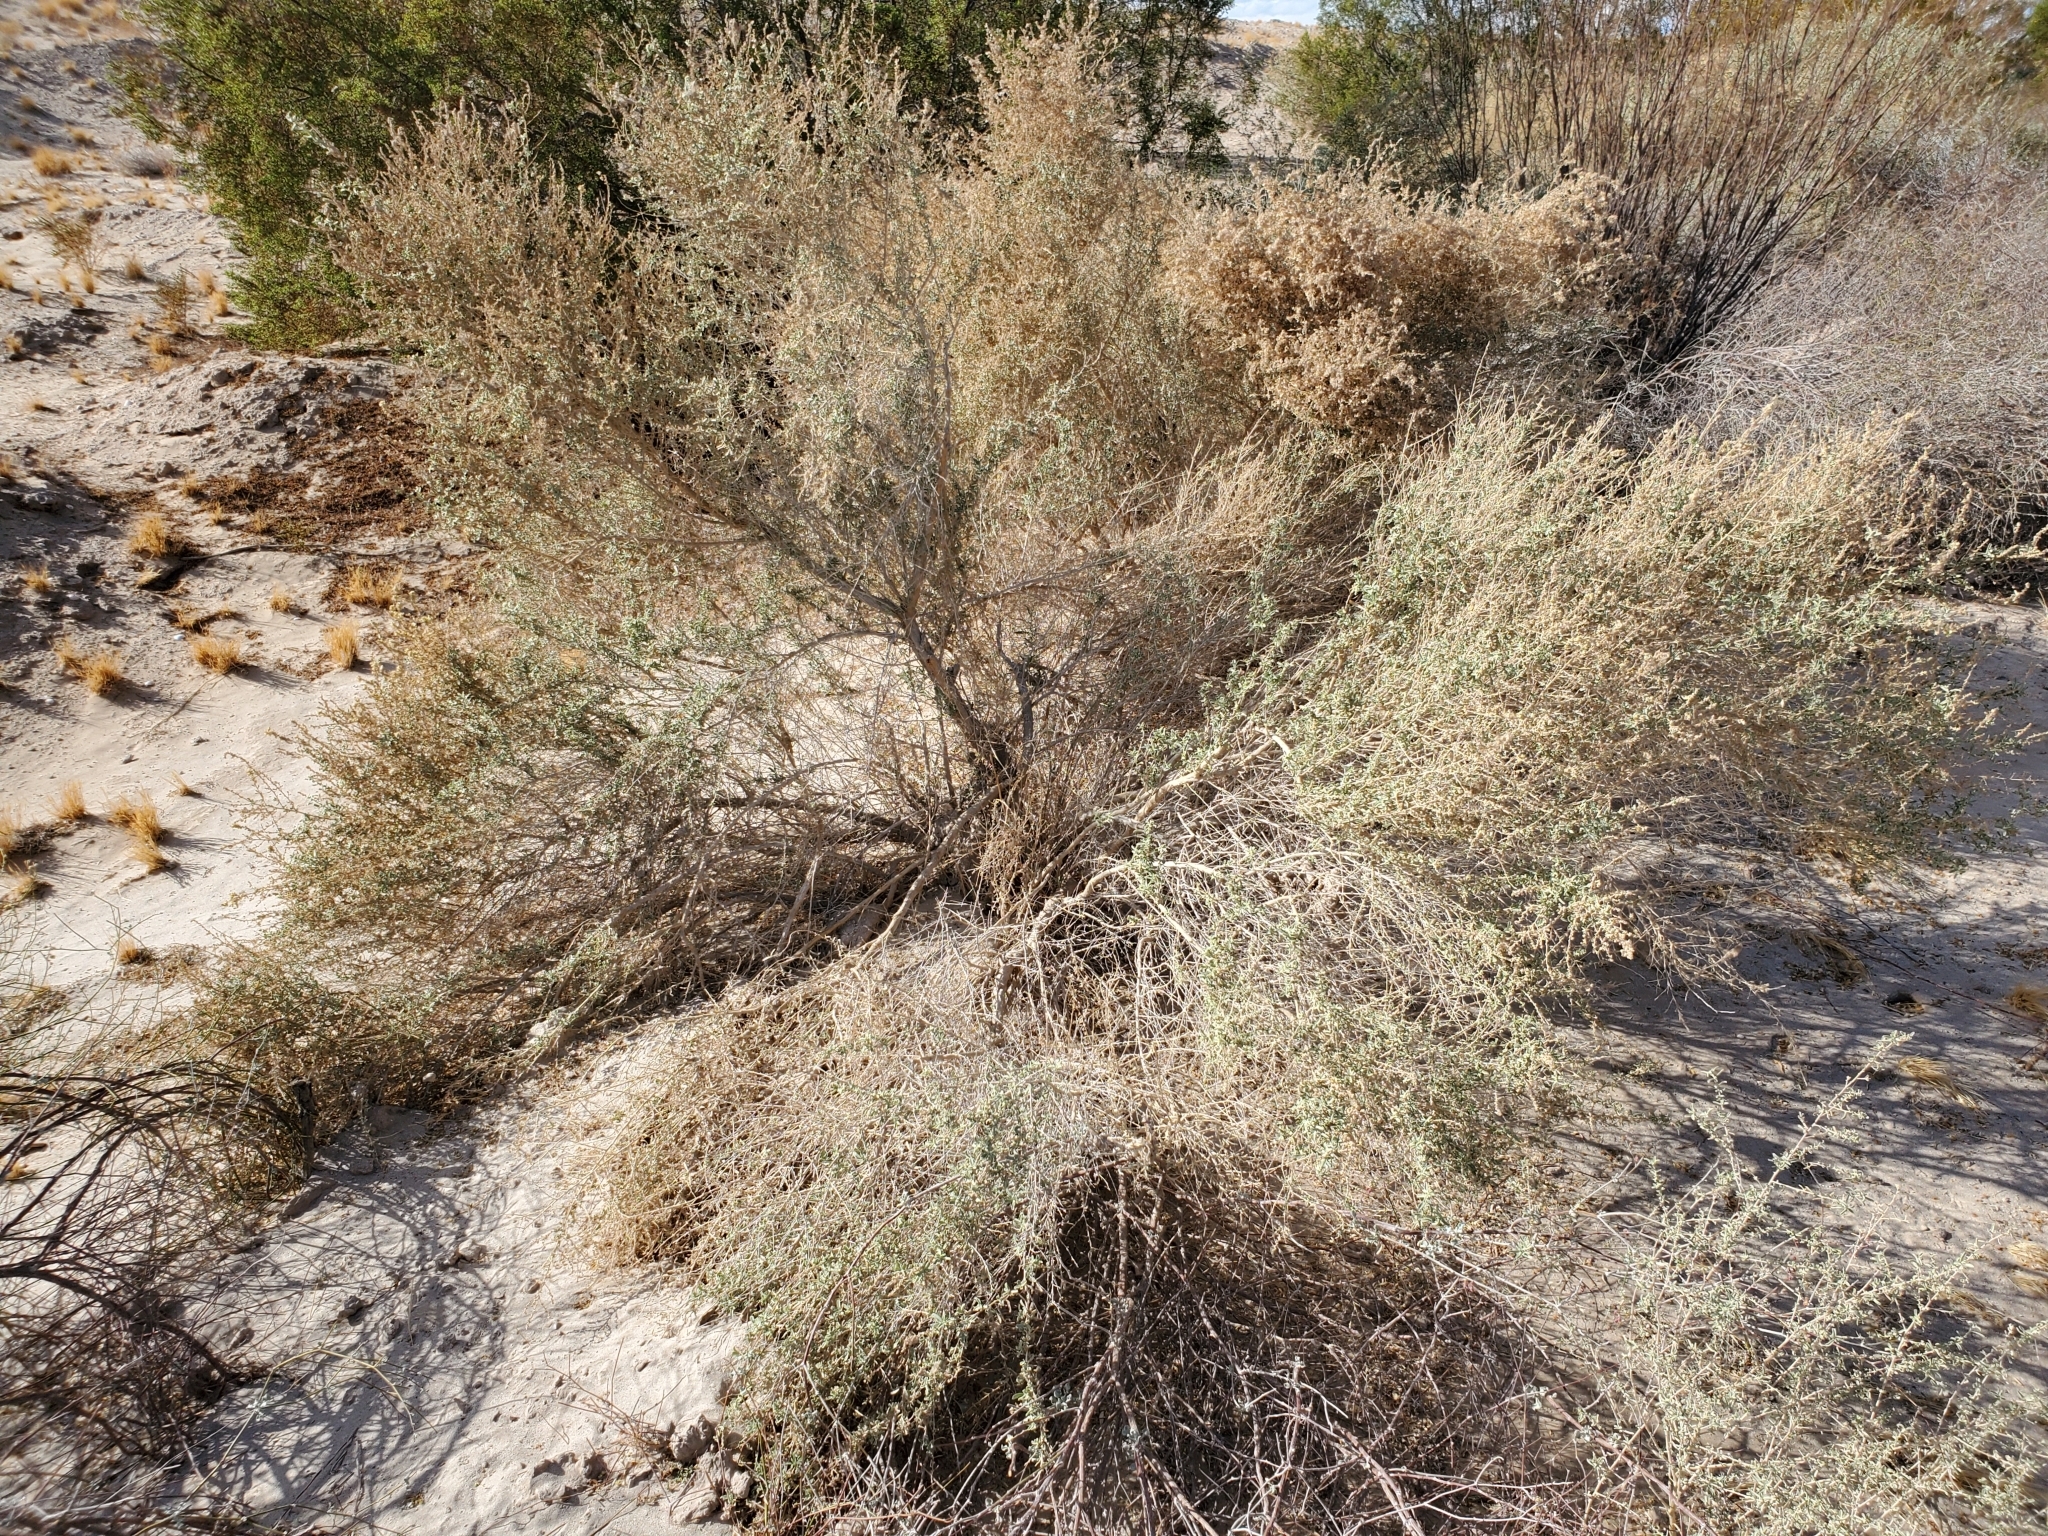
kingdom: Plantae
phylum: Tracheophyta
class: Magnoliopsida
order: Caryophyllales
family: Amaranthaceae
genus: Atriplex
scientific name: Atriplex canescens
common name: Four-wing saltbush
